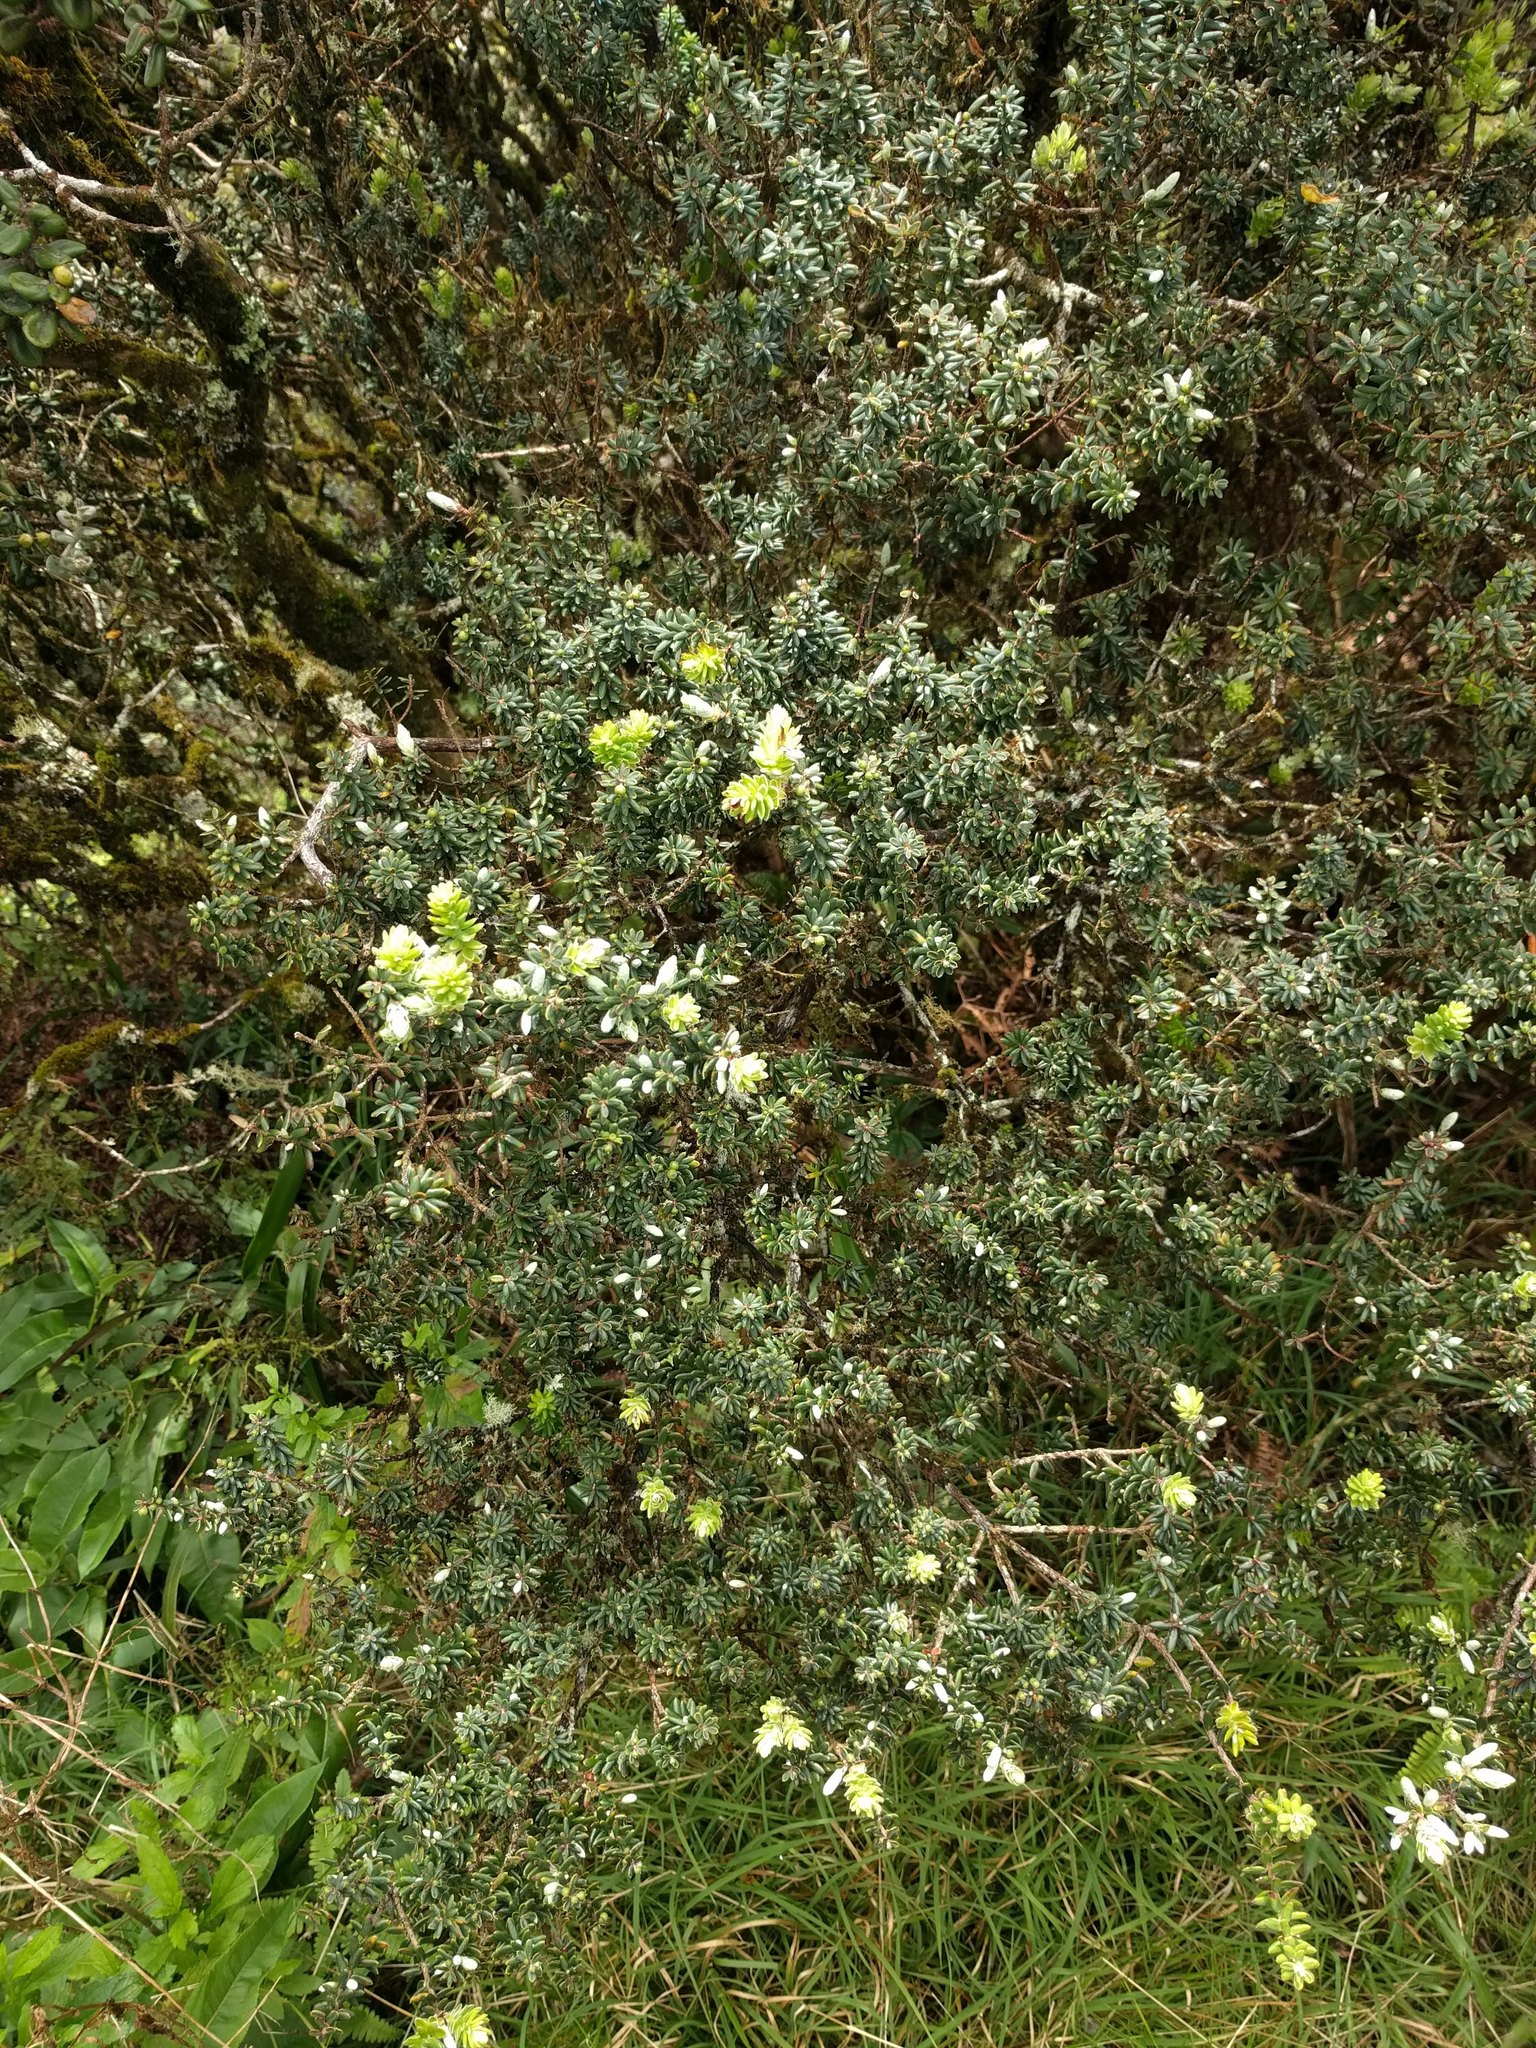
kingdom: Plantae
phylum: Tracheophyta
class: Magnoliopsida
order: Ericales
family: Ericaceae
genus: Leptecophylla
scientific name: Leptecophylla tameiameiae
